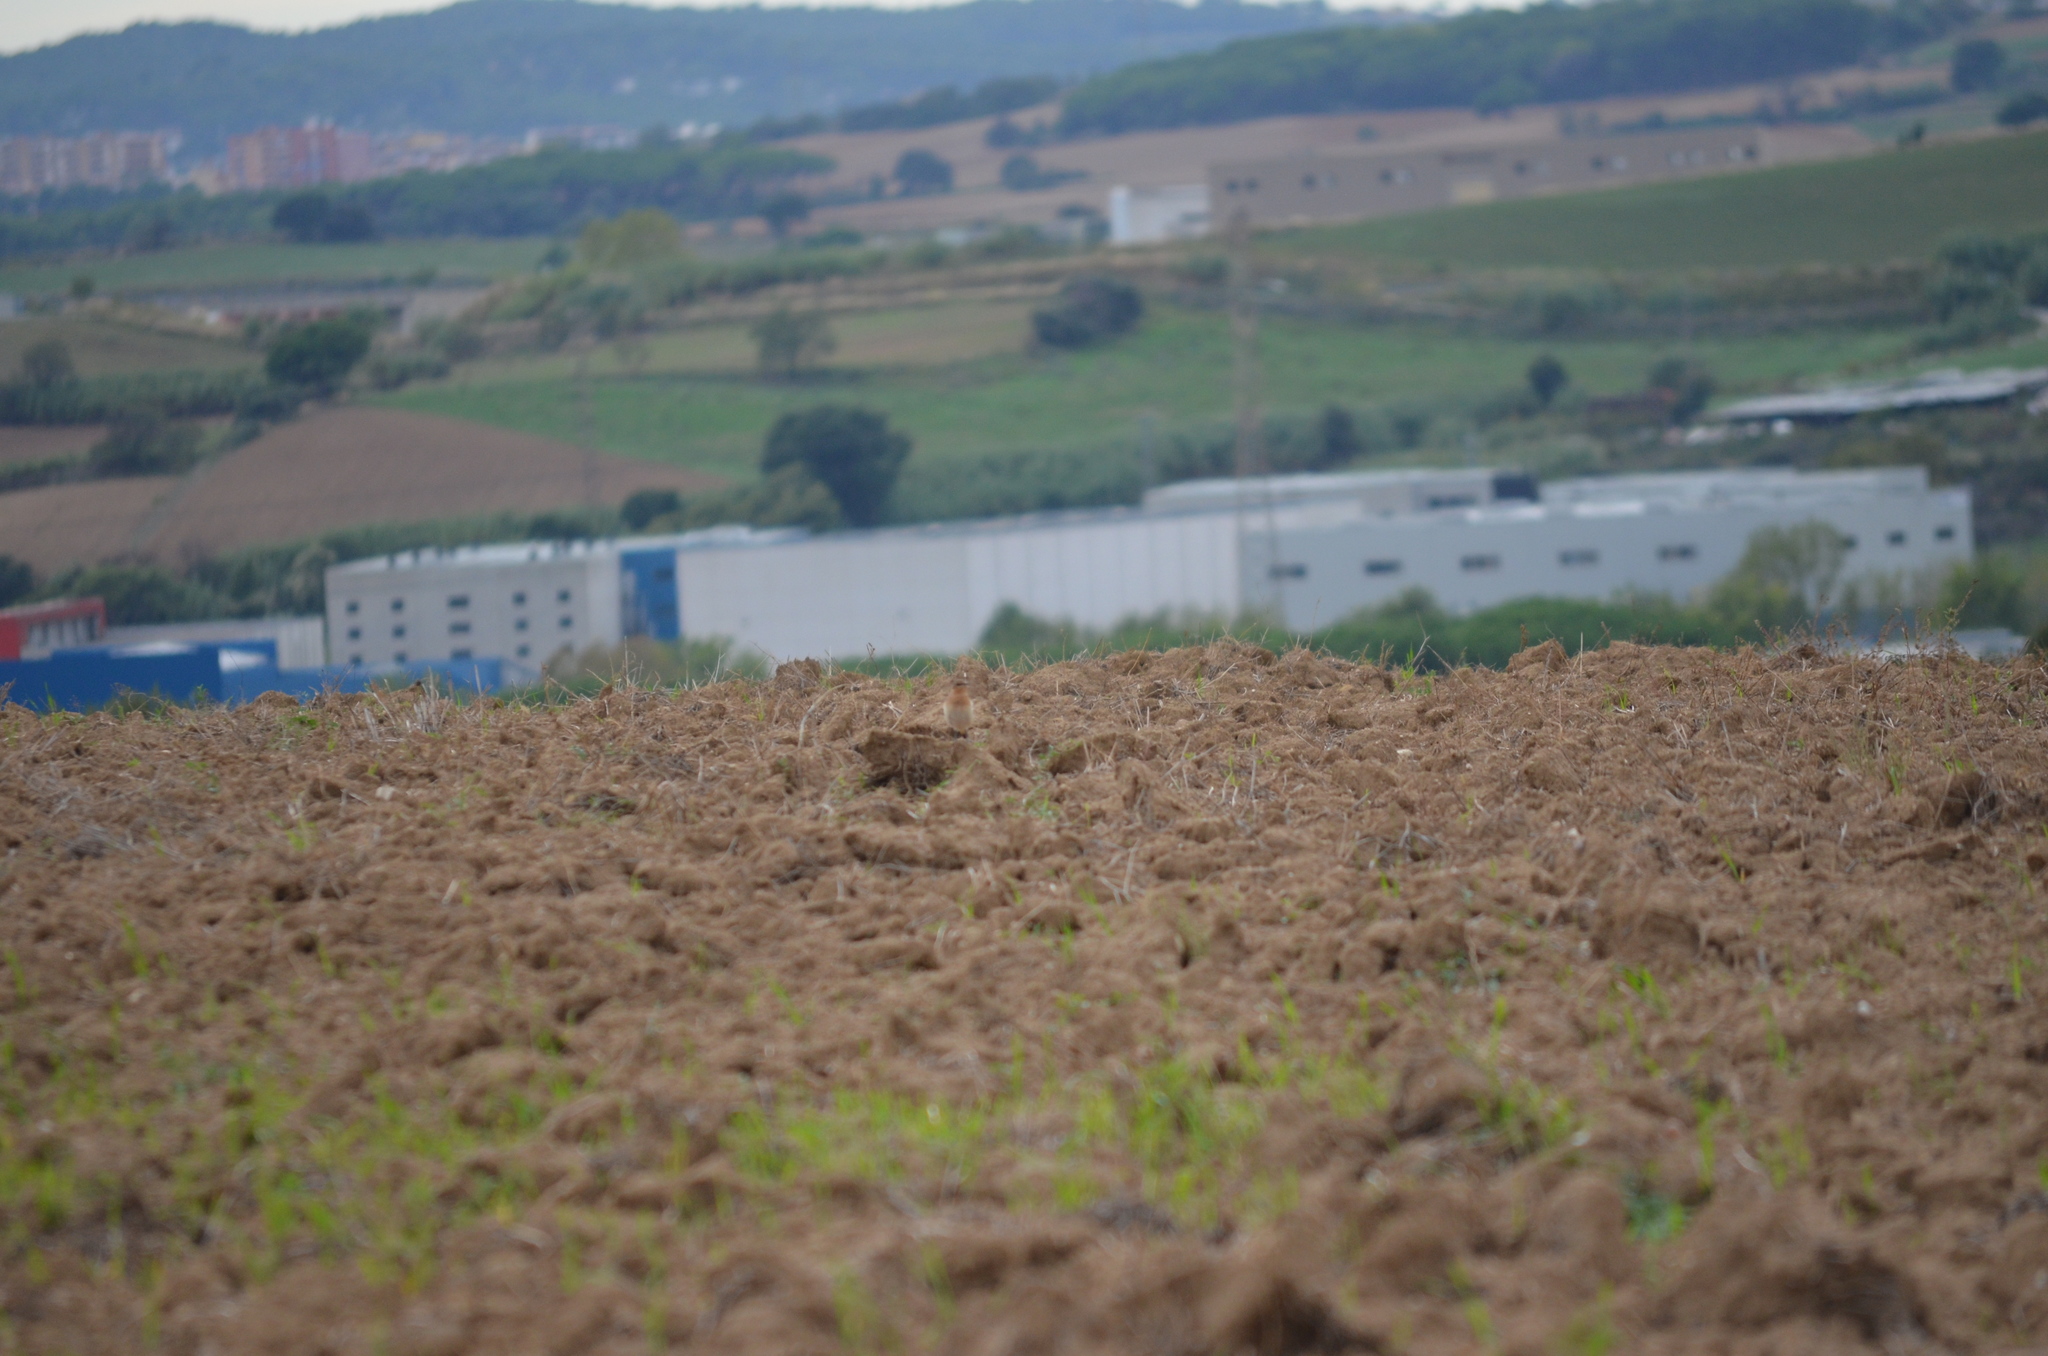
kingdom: Animalia
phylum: Chordata
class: Aves
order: Passeriformes
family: Muscicapidae
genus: Oenanthe
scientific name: Oenanthe oenanthe
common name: Northern wheatear
